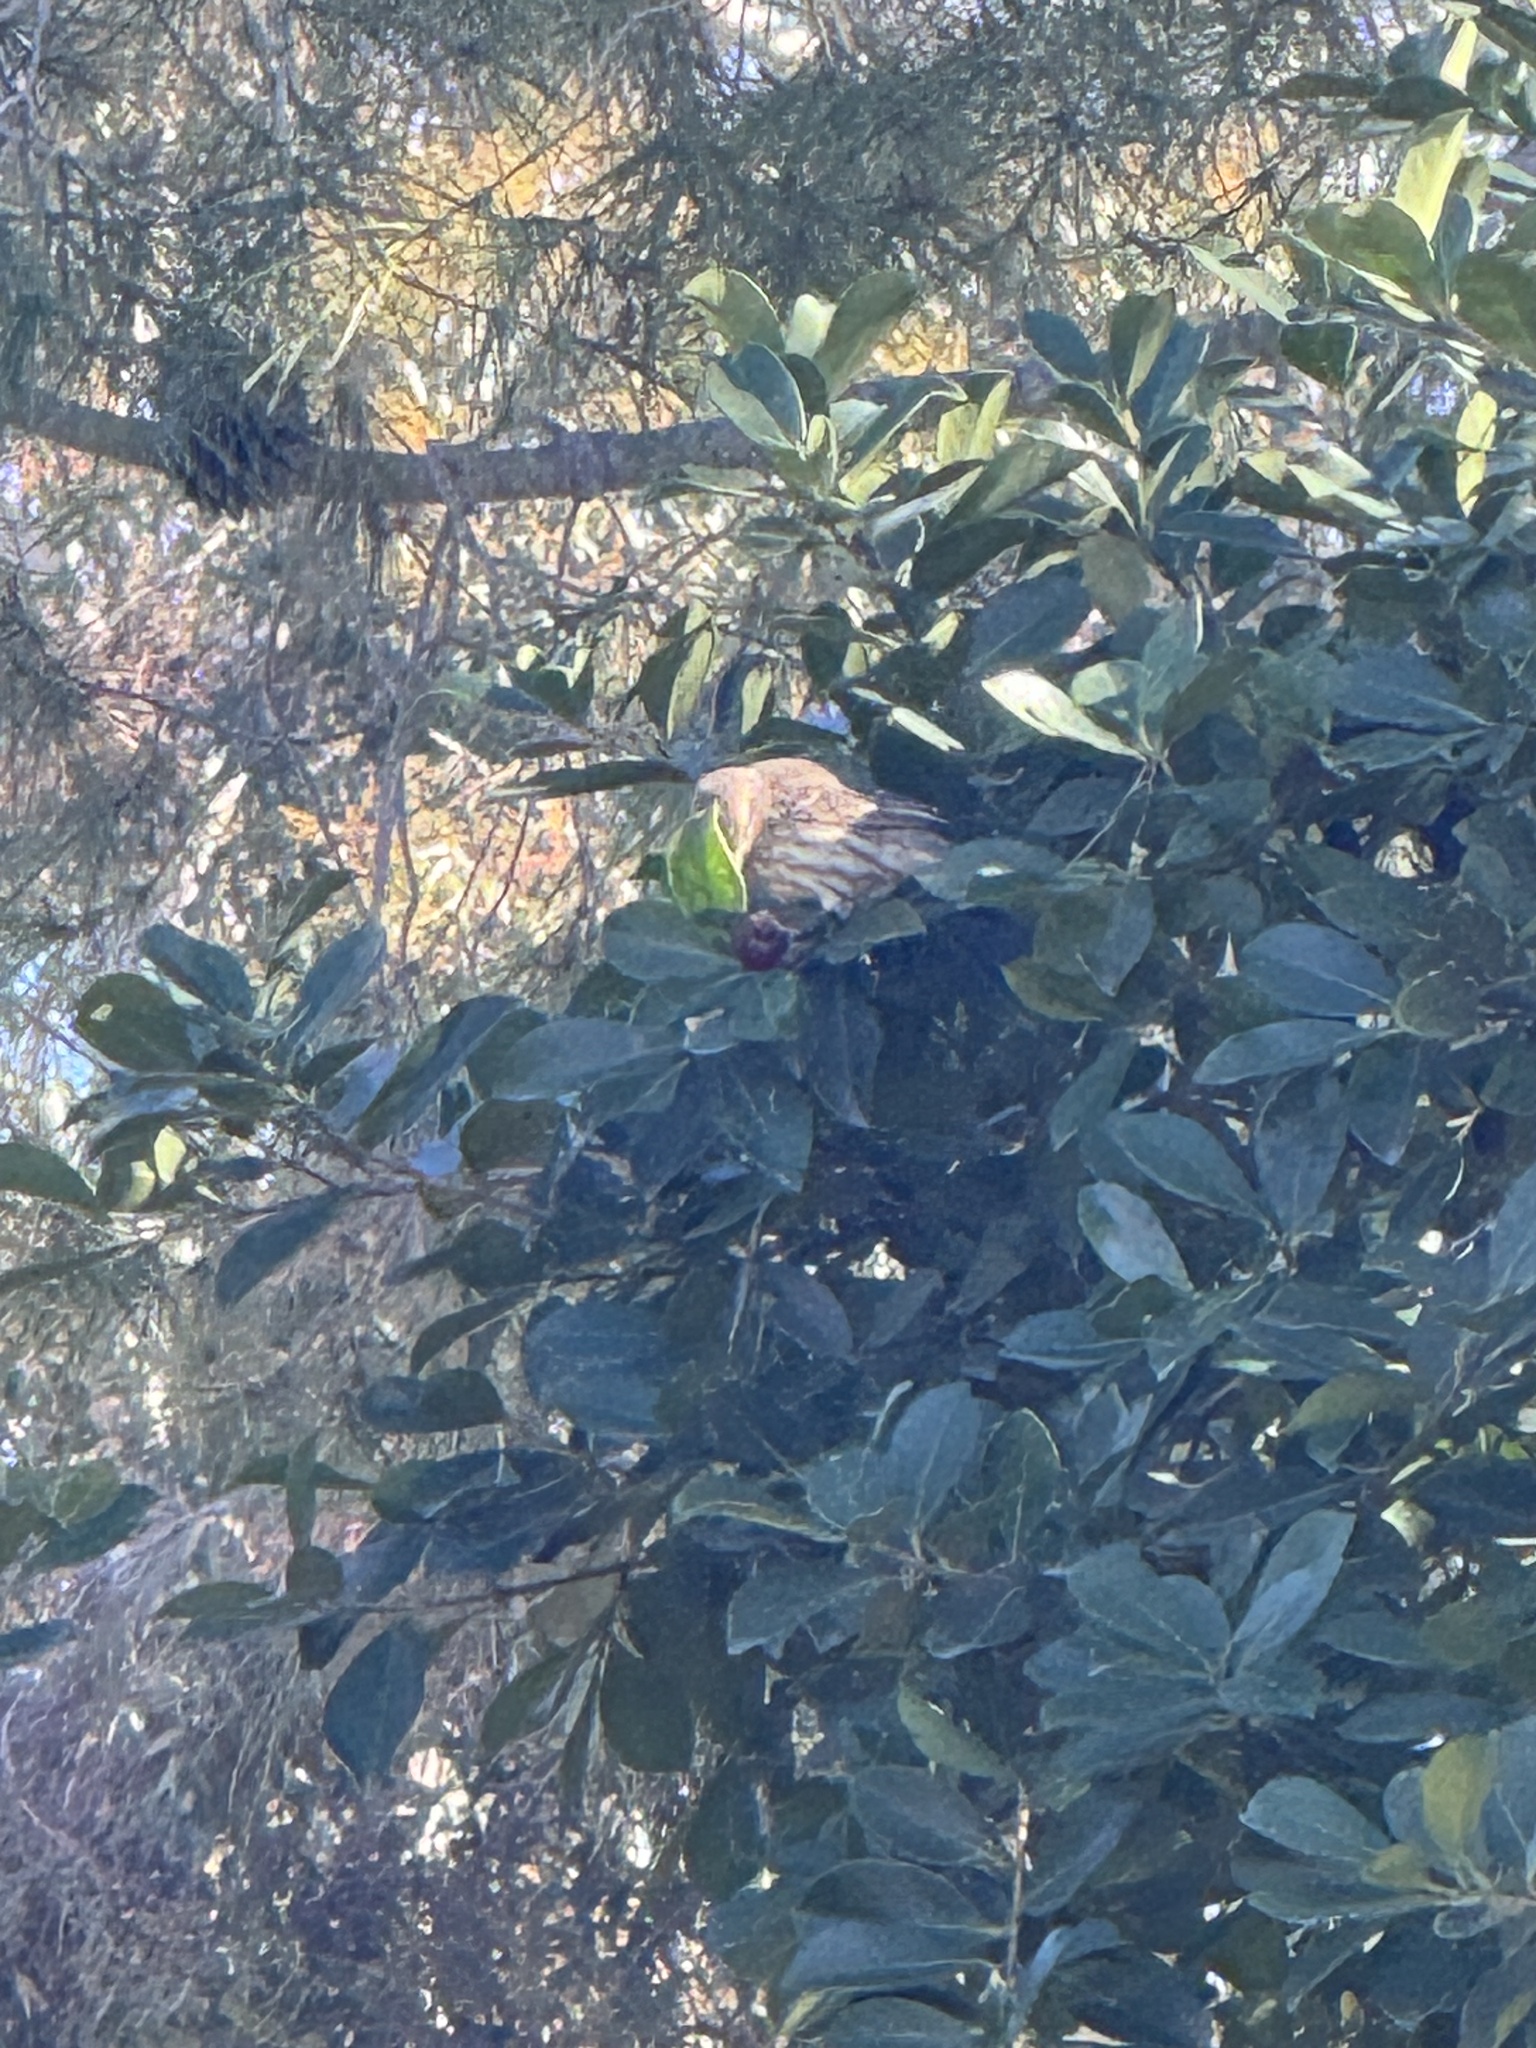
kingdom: Animalia
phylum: Chordata
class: Aves
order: Passeriformes
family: Fringillidae
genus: Haemorhous
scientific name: Haemorhous mexicanus
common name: House finch
